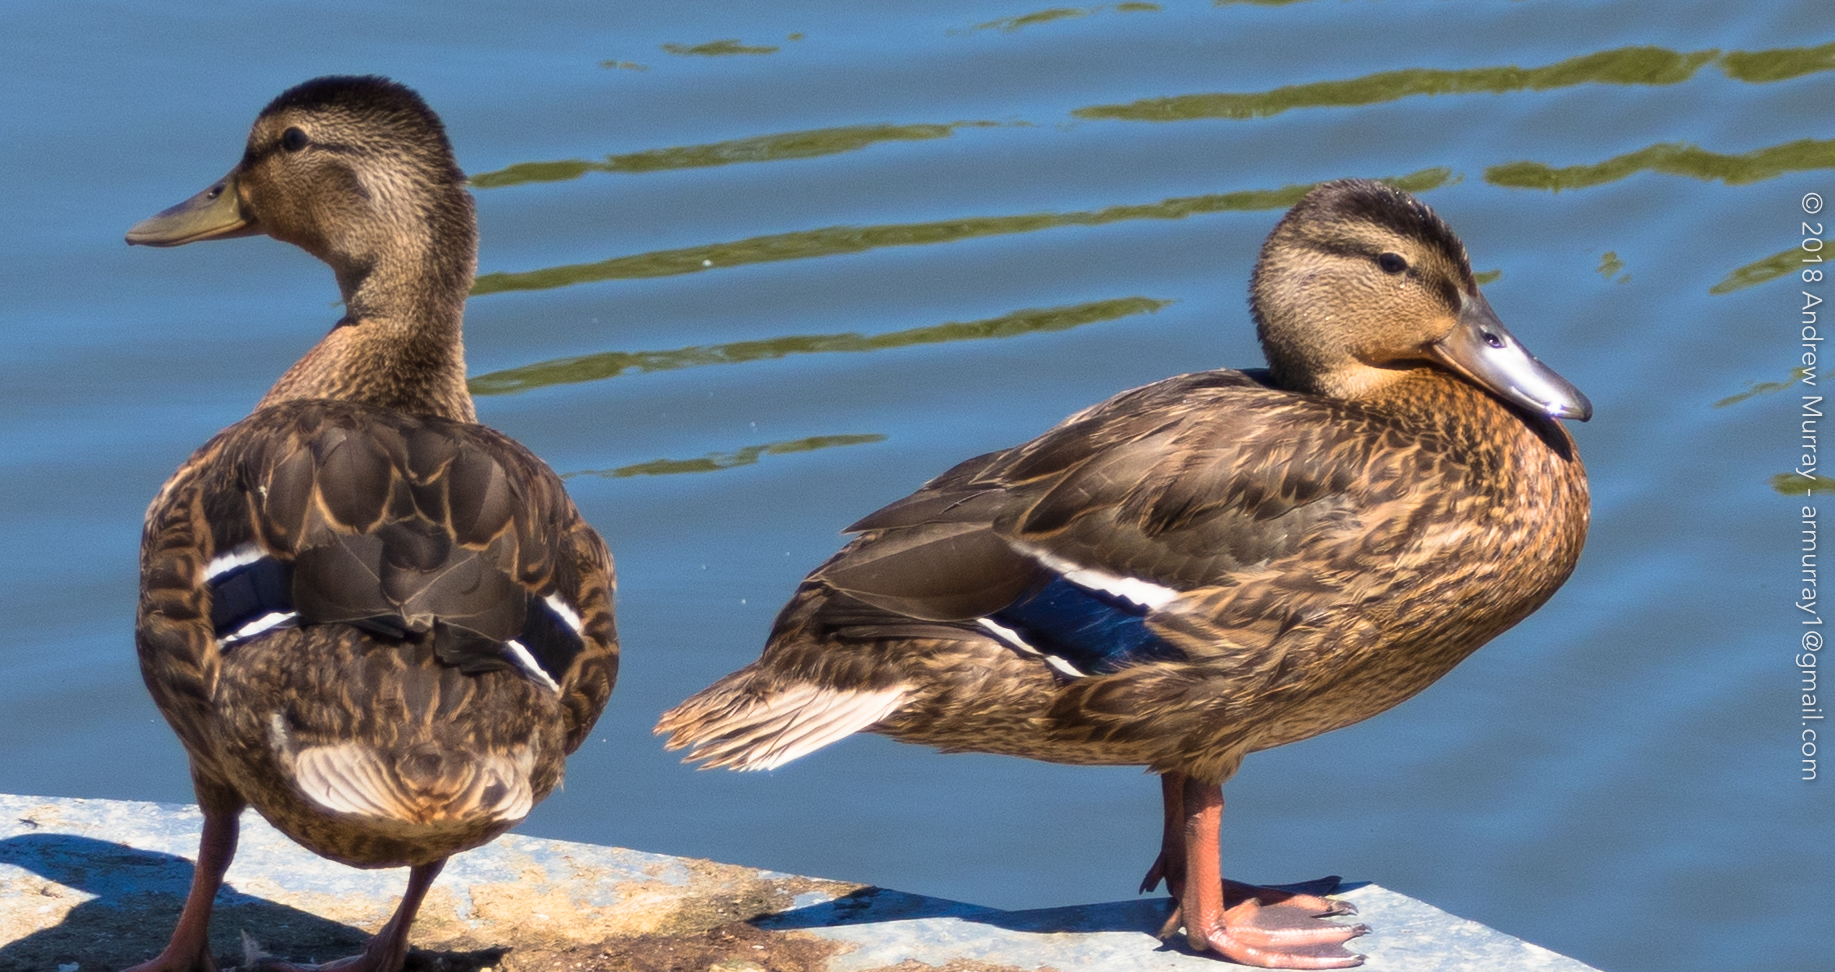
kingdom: Animalia
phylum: Chordata
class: Aves
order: Anseriformes
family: Anatidae
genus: Anas
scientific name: Anas platyrhynchos
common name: Mallard
